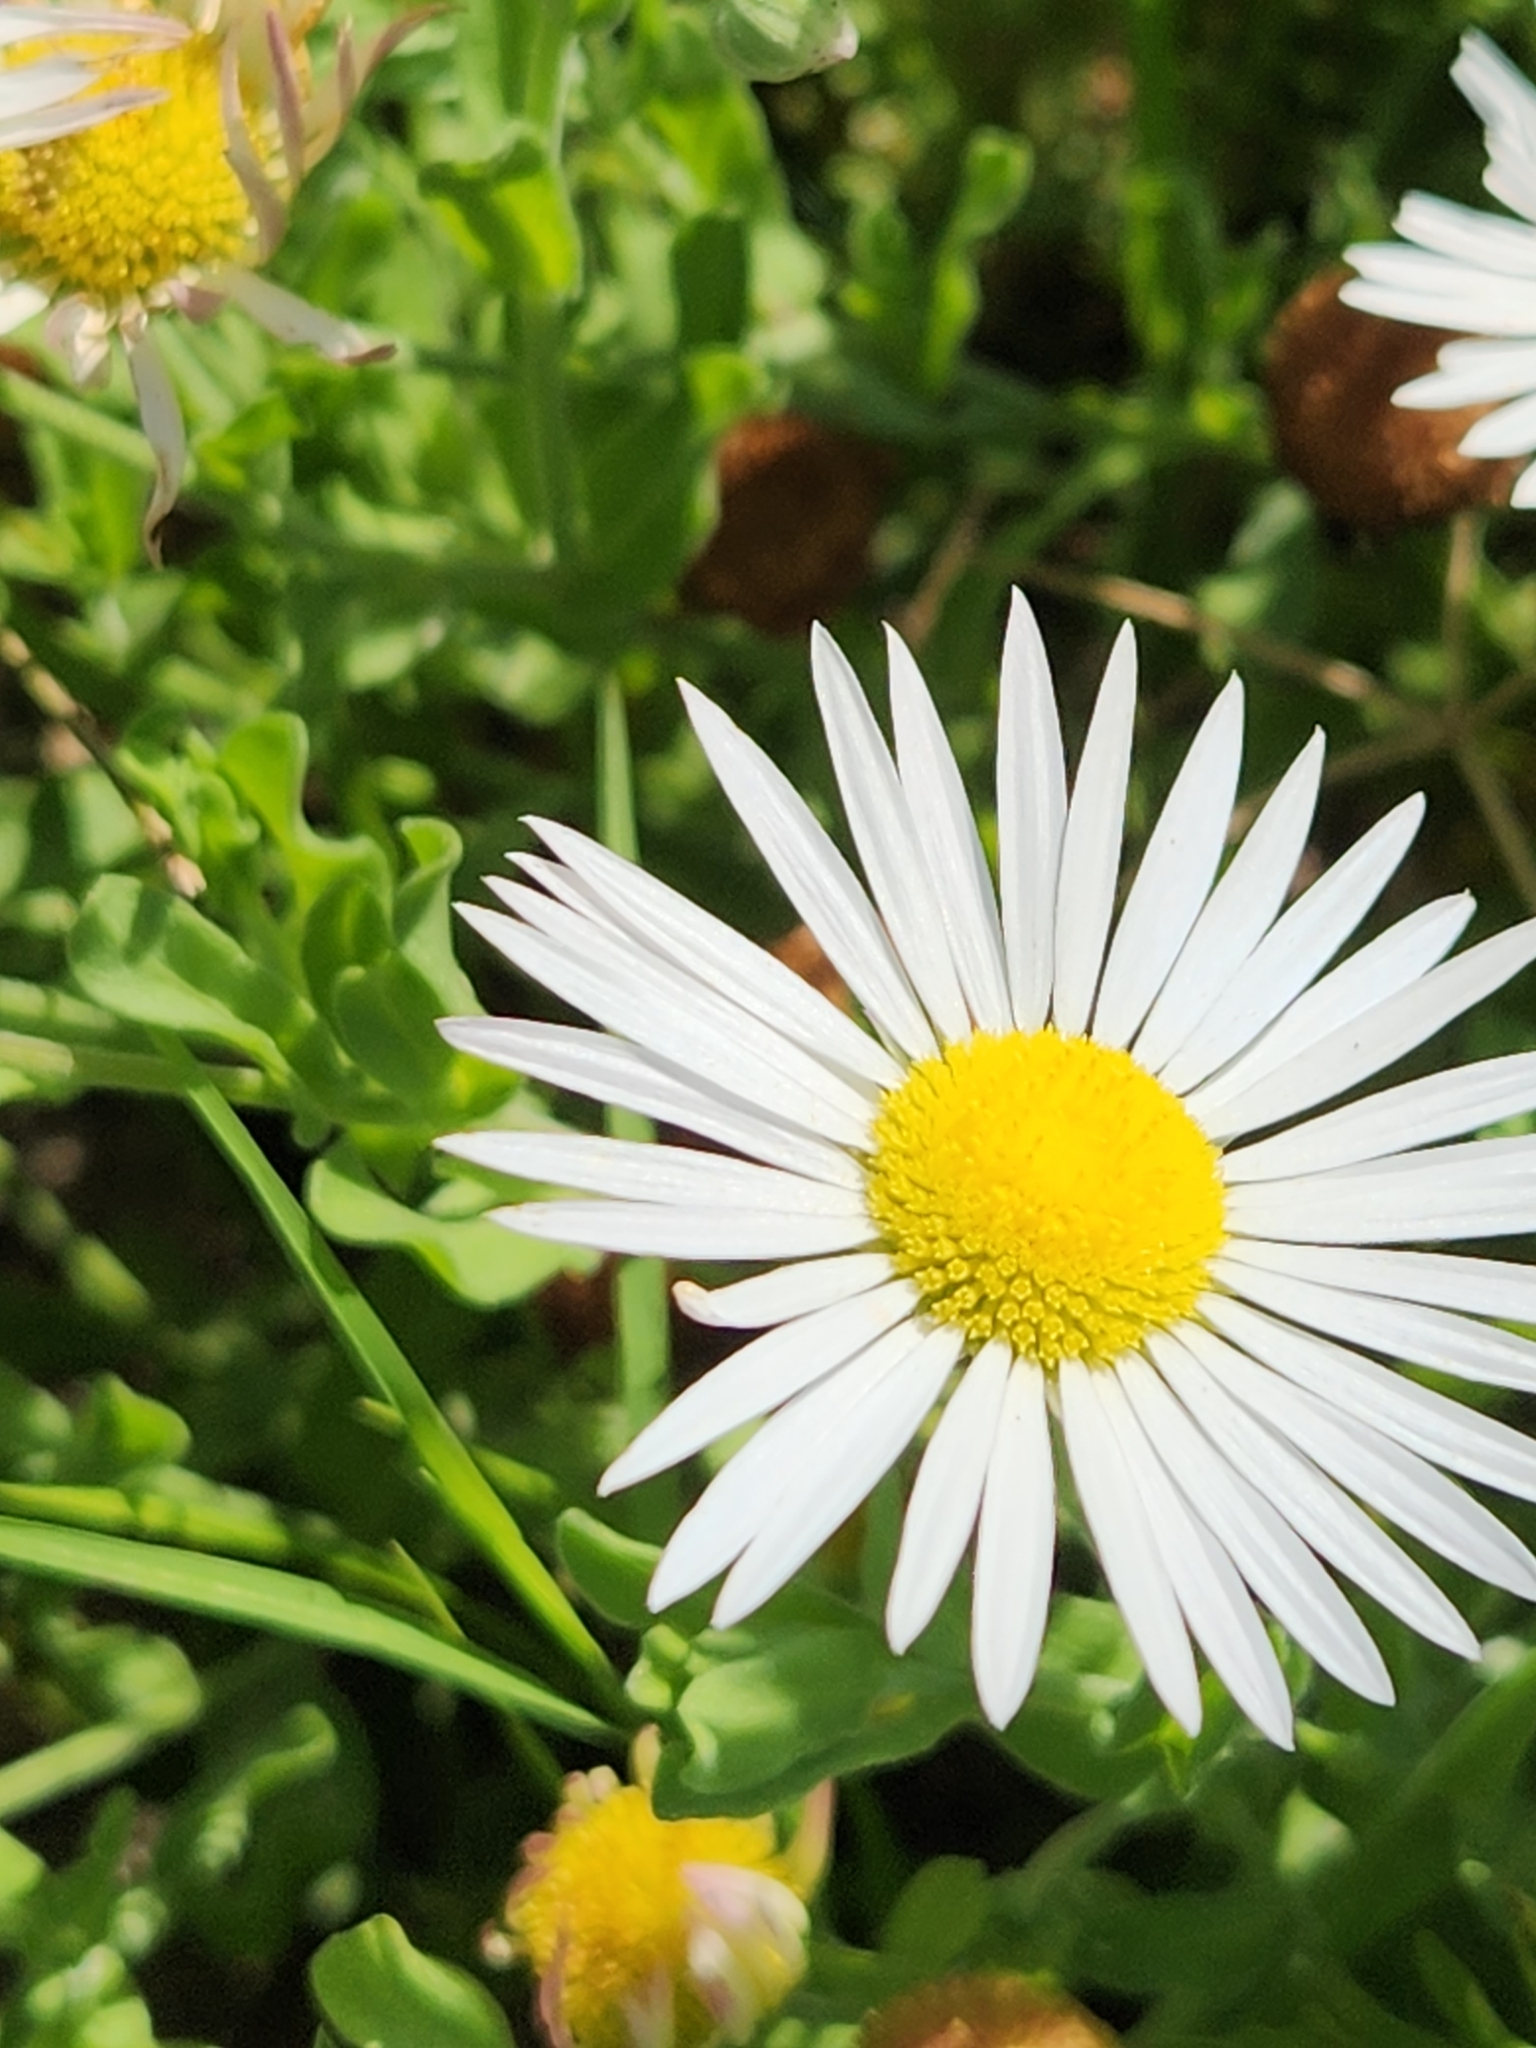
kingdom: Plantae
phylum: Tracheophyta
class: Magnoliopsida
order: Asterales
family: Asteraceae
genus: Aphanostephus
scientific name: Aphanostephus ramosissimus
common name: Plains lazy daisy
